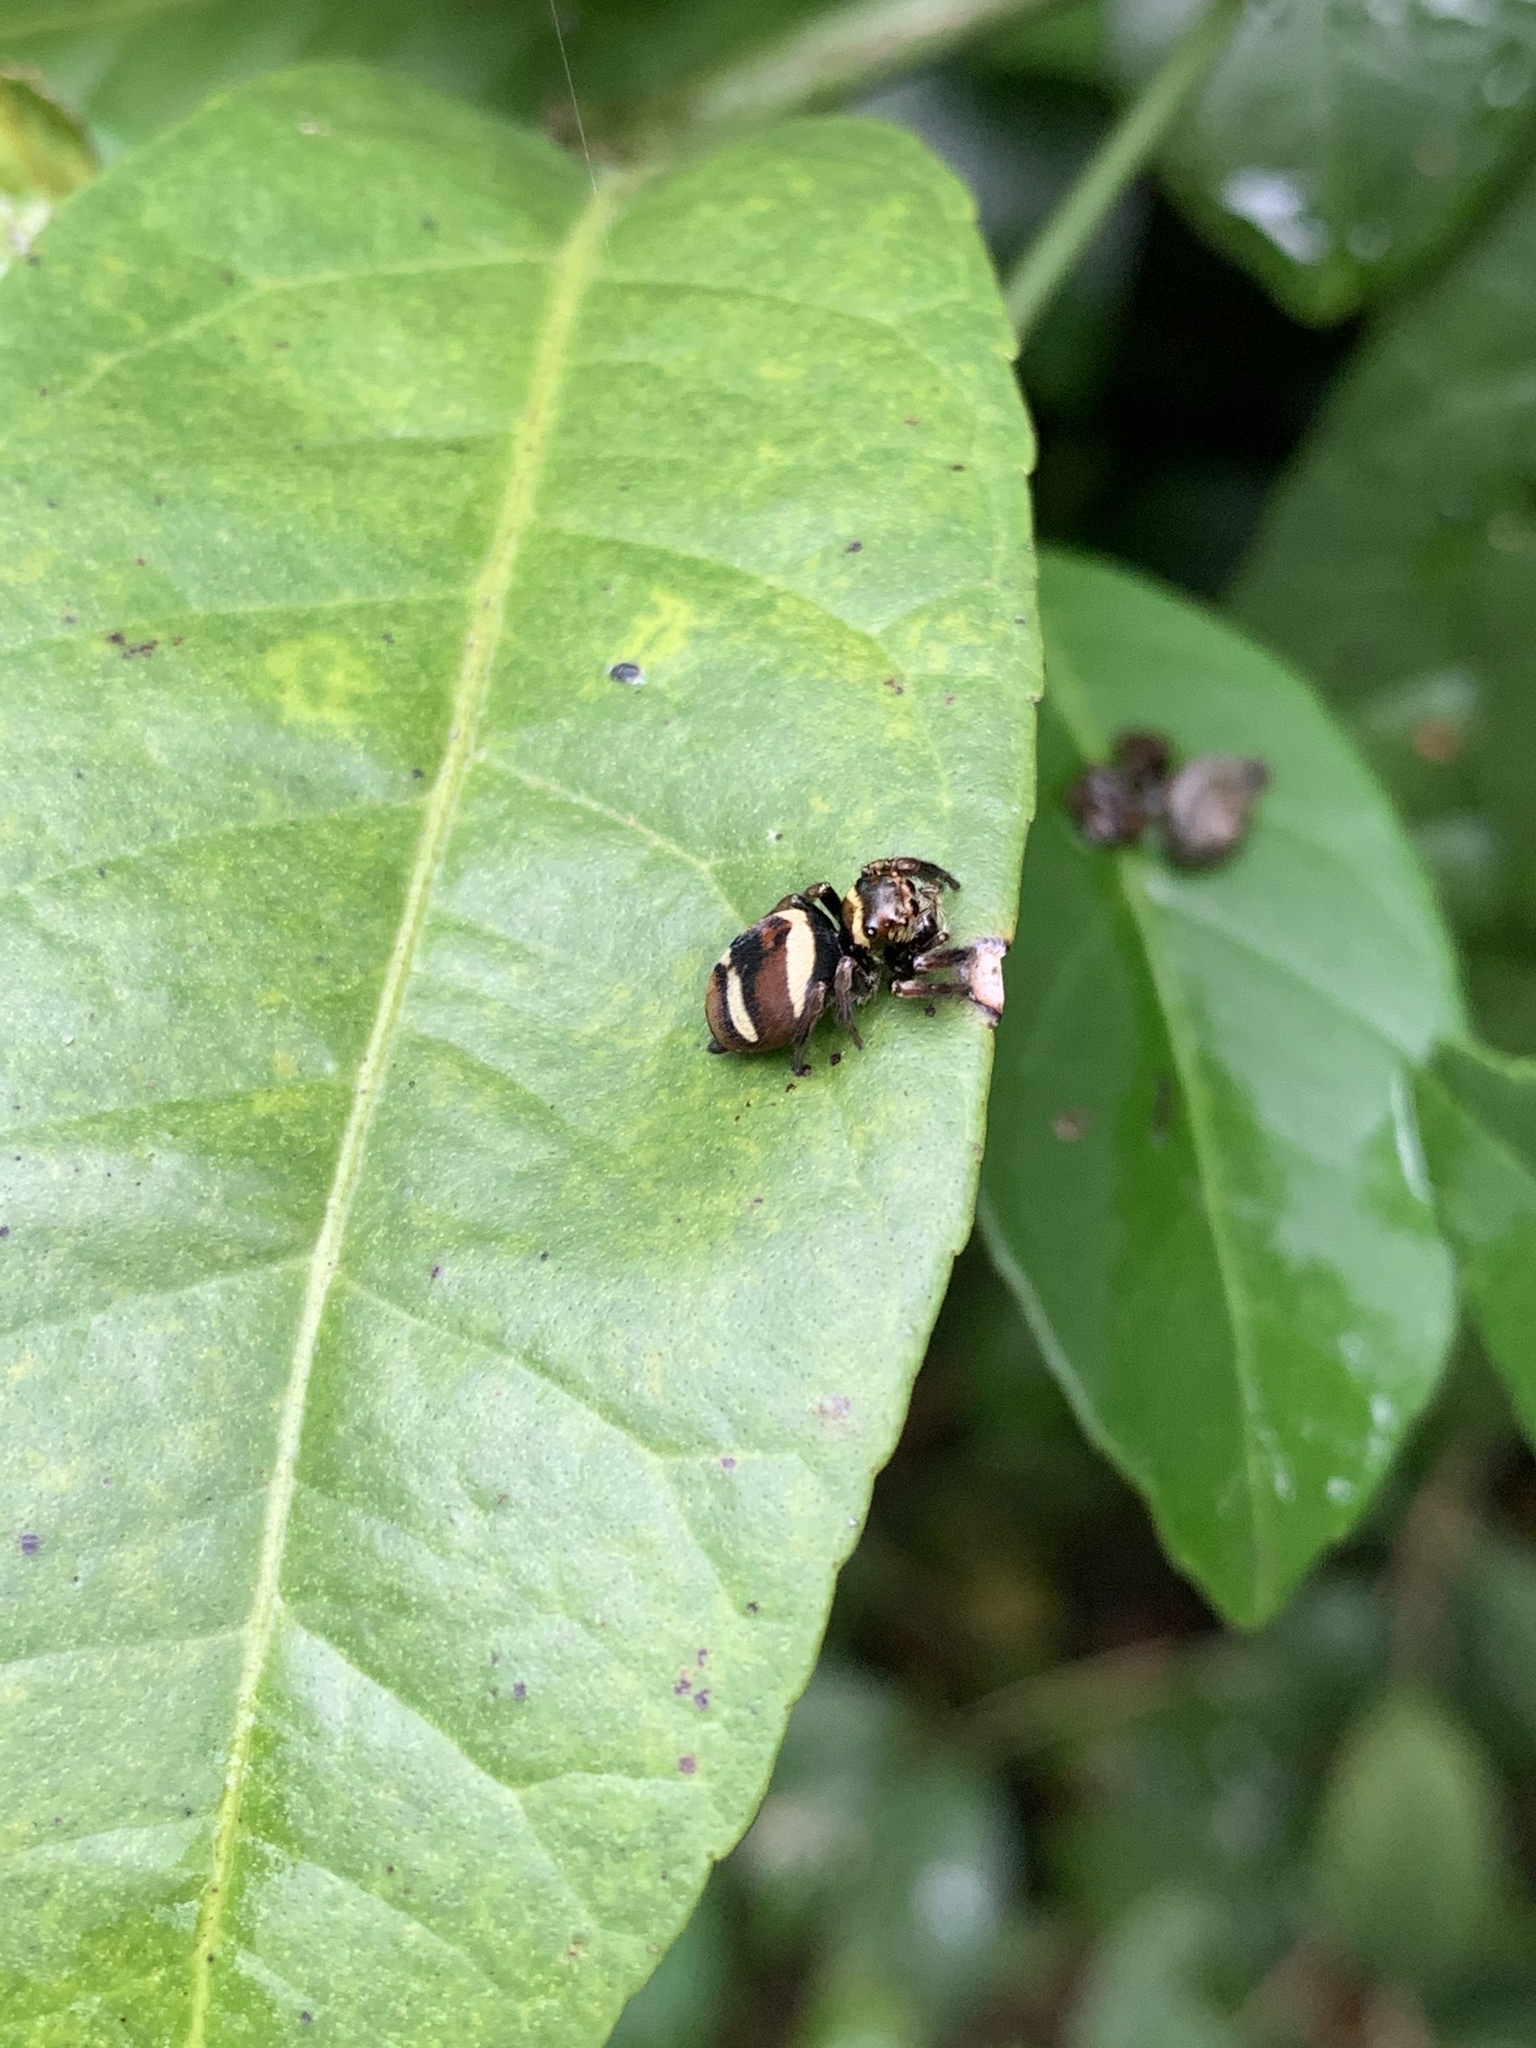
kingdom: Animalia
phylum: Arthropoda
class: Arachnida
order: Araneae
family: Salticidae
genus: Ptocasius
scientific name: Ptocasius strupifer
